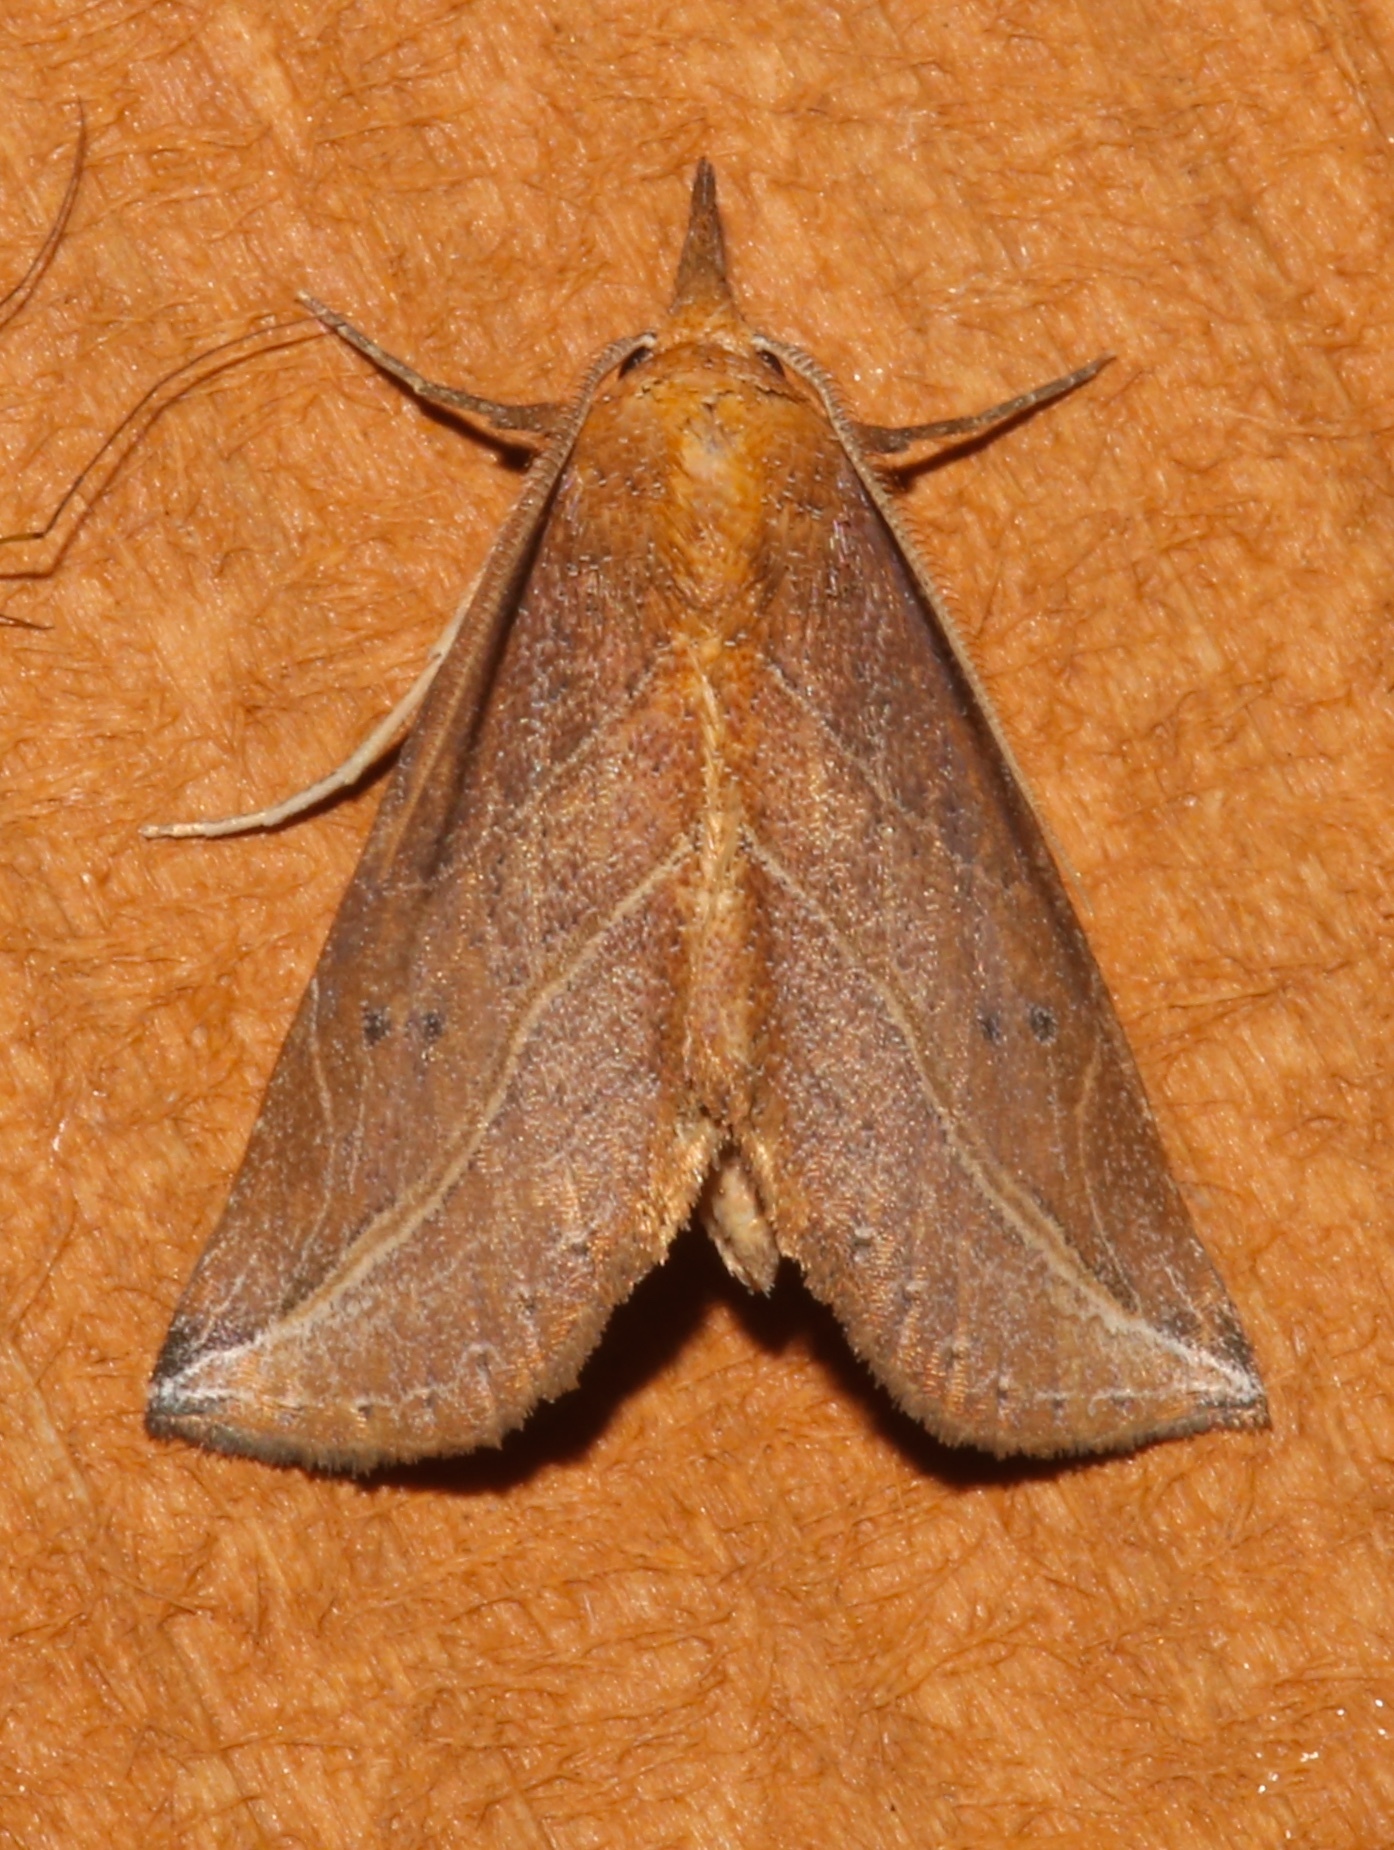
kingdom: Animalia
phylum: Arthropoda
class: Insecta
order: Lepidoptera
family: Erebidae
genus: Phyprosopus
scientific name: Phyprosopus callitrichoides
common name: Curved-lined owlet
